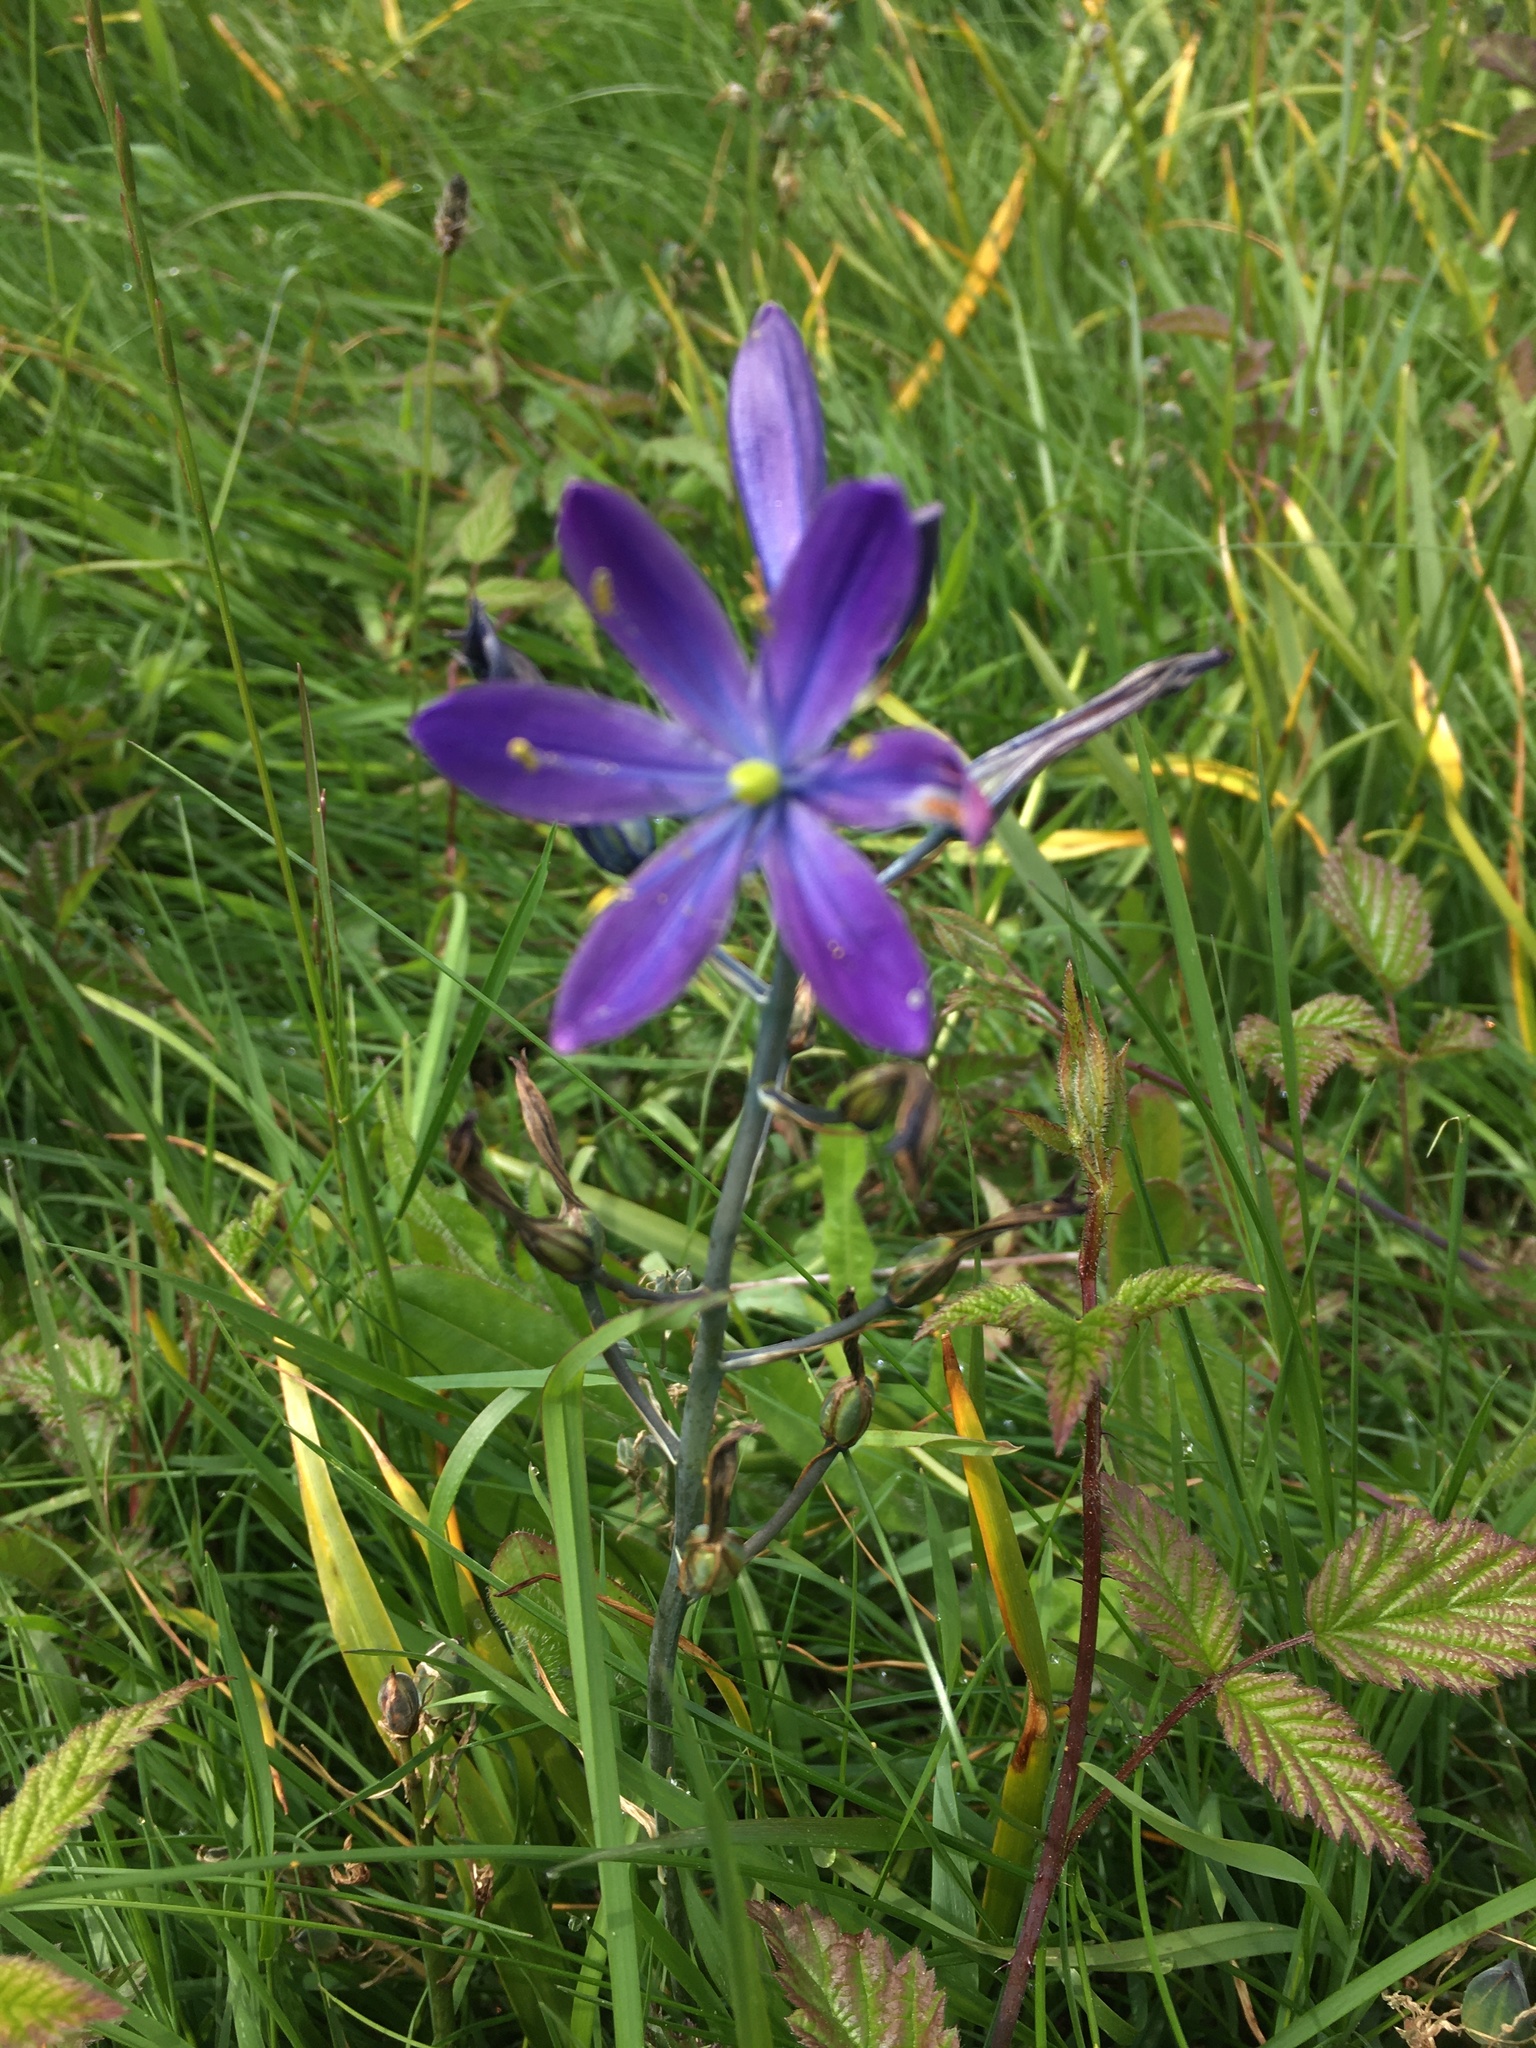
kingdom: Plantae
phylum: Tracheophyta
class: Liliopsida
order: Asparagales
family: Asparagaceae
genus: Camassia
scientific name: Camassia leichtlinii
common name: Leichtlin's camas
